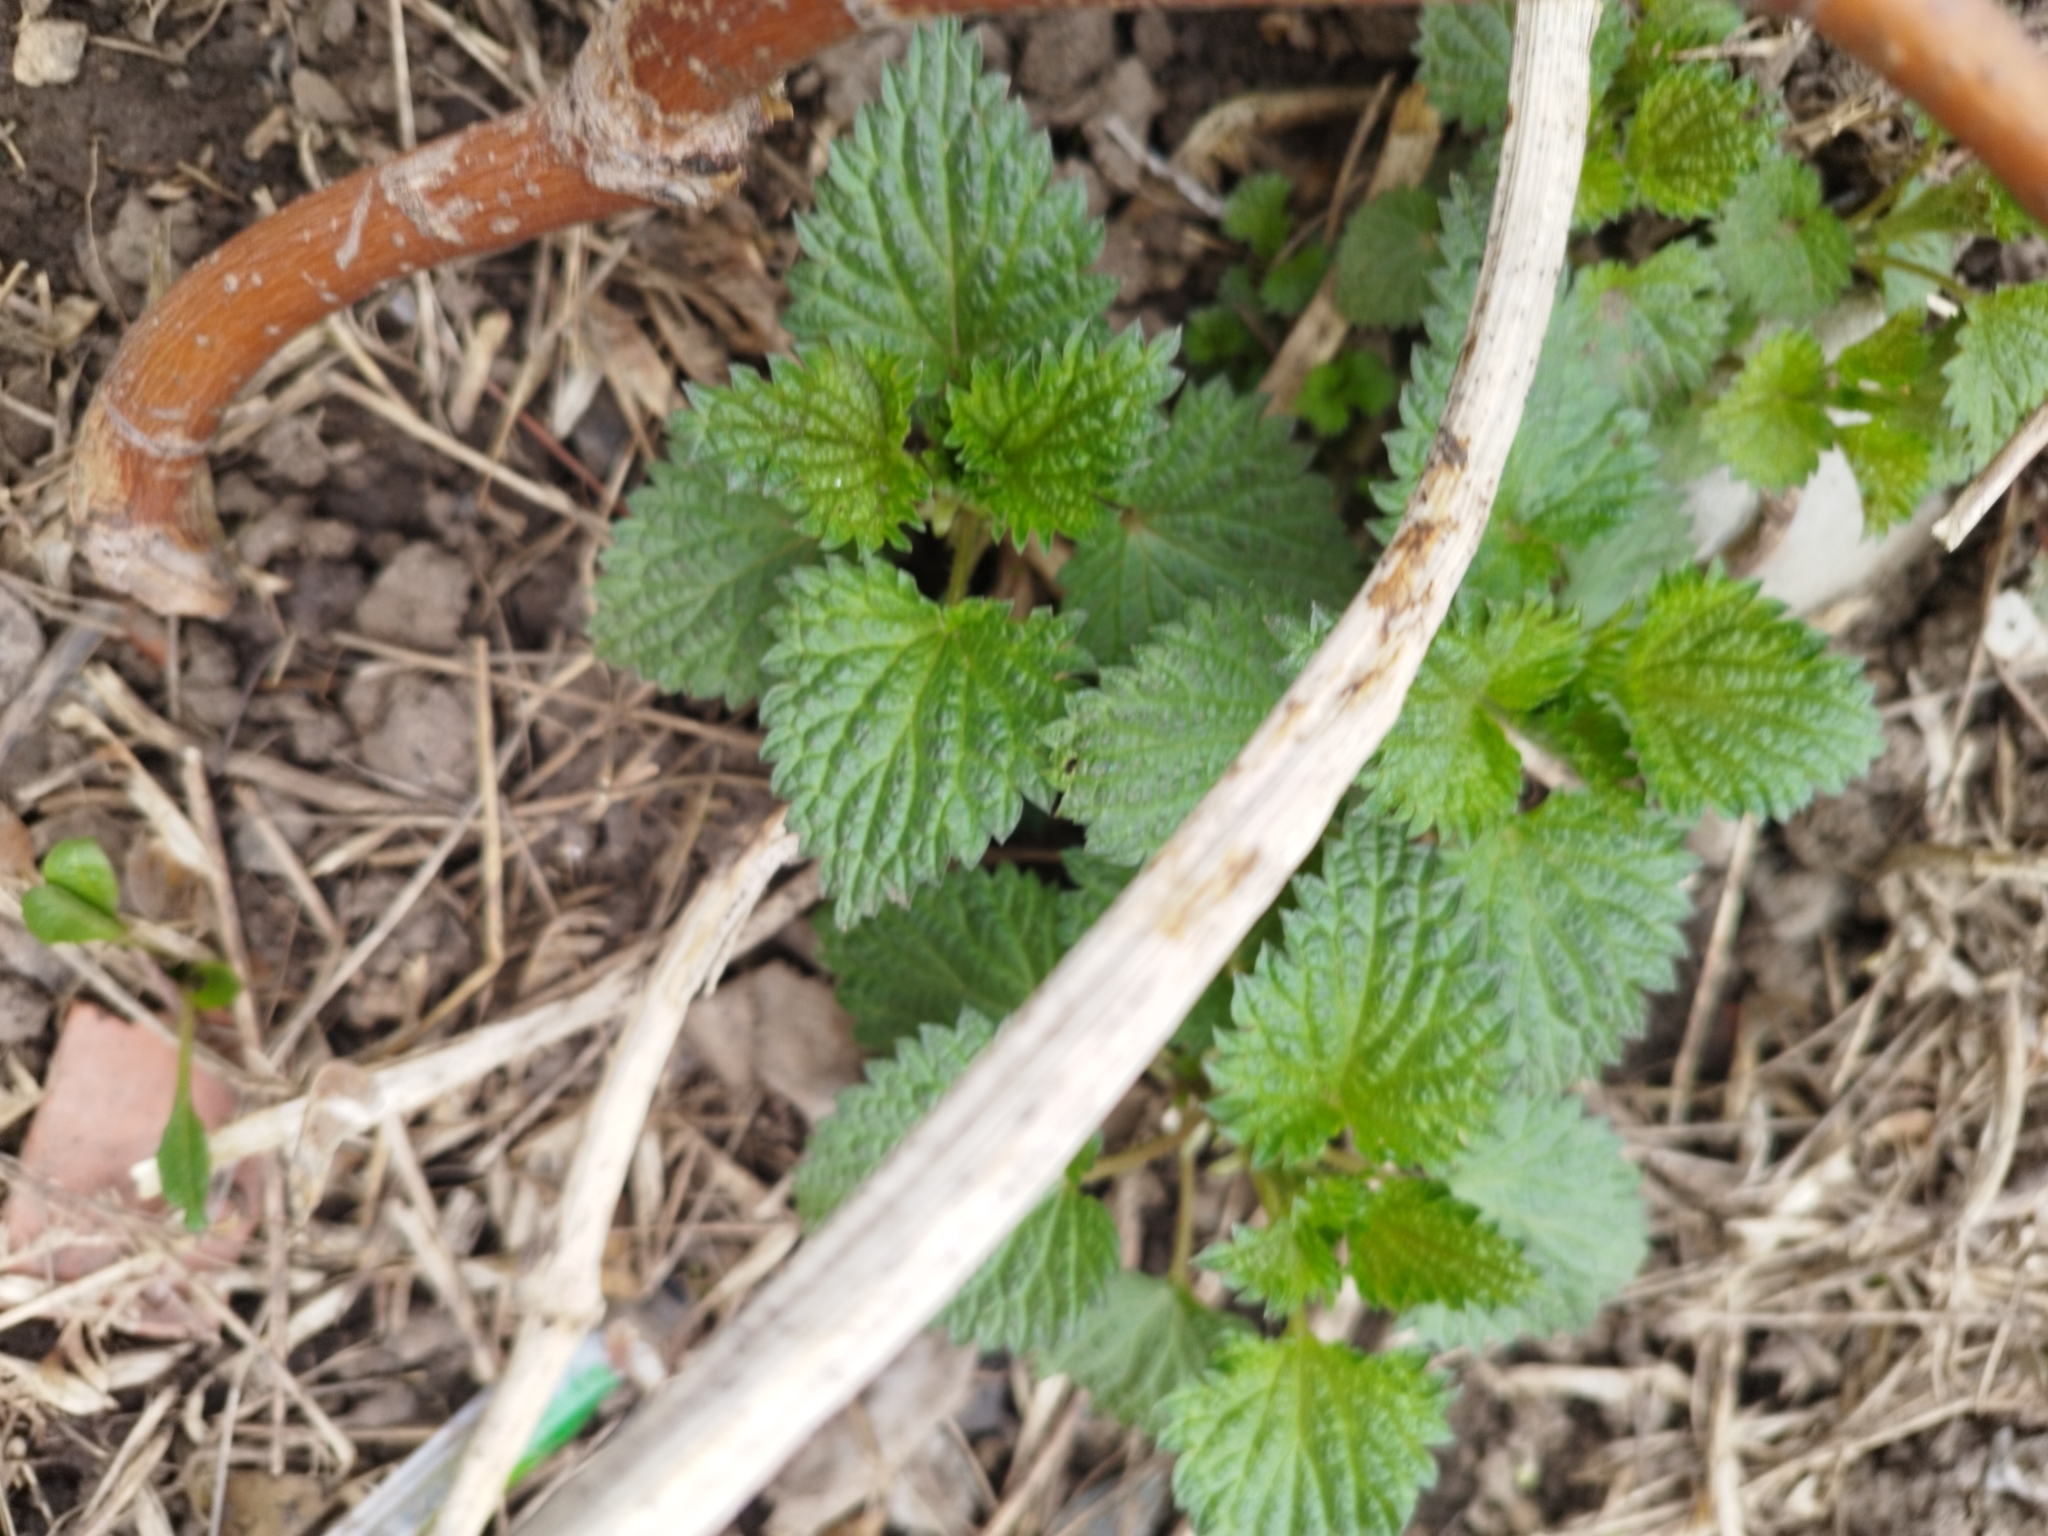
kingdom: Plantae
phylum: Tracheophyta
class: Magnoliopsida
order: Rosales
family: Urticaceae
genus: Urtica
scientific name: Urtica dioica
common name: Common nettle
